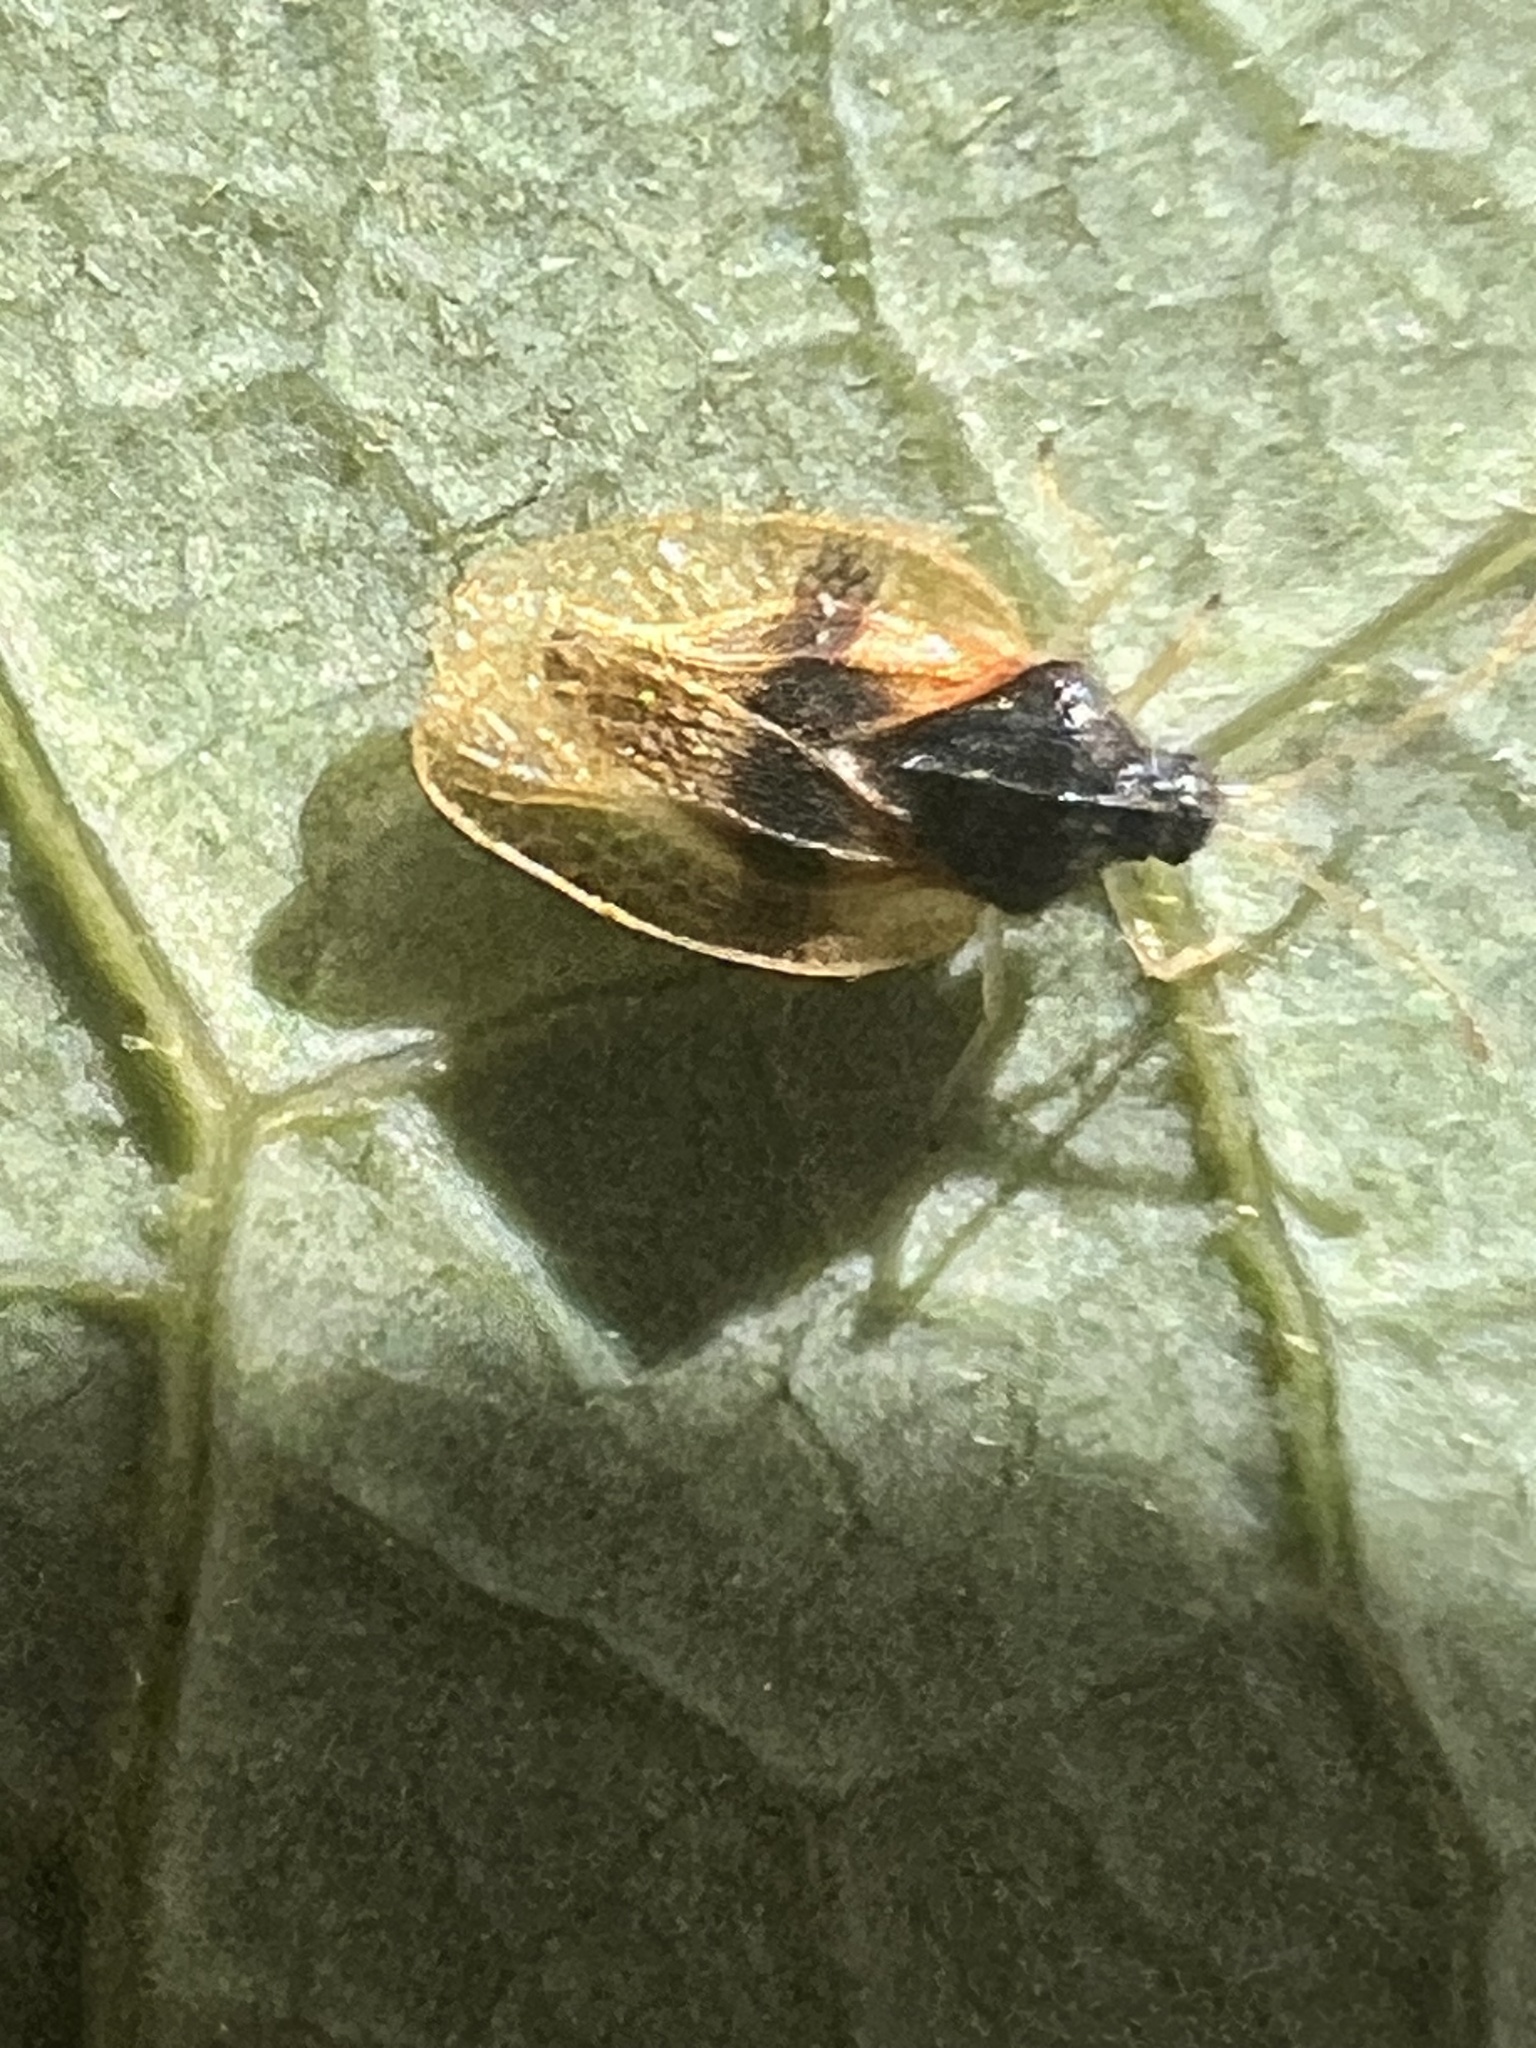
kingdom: Animalia
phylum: Arthropoda
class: Insecta
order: Hemiptera
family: Tingidae
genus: Pseudacysta
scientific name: Pseudacysta perseae
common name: Avocado lace bug
